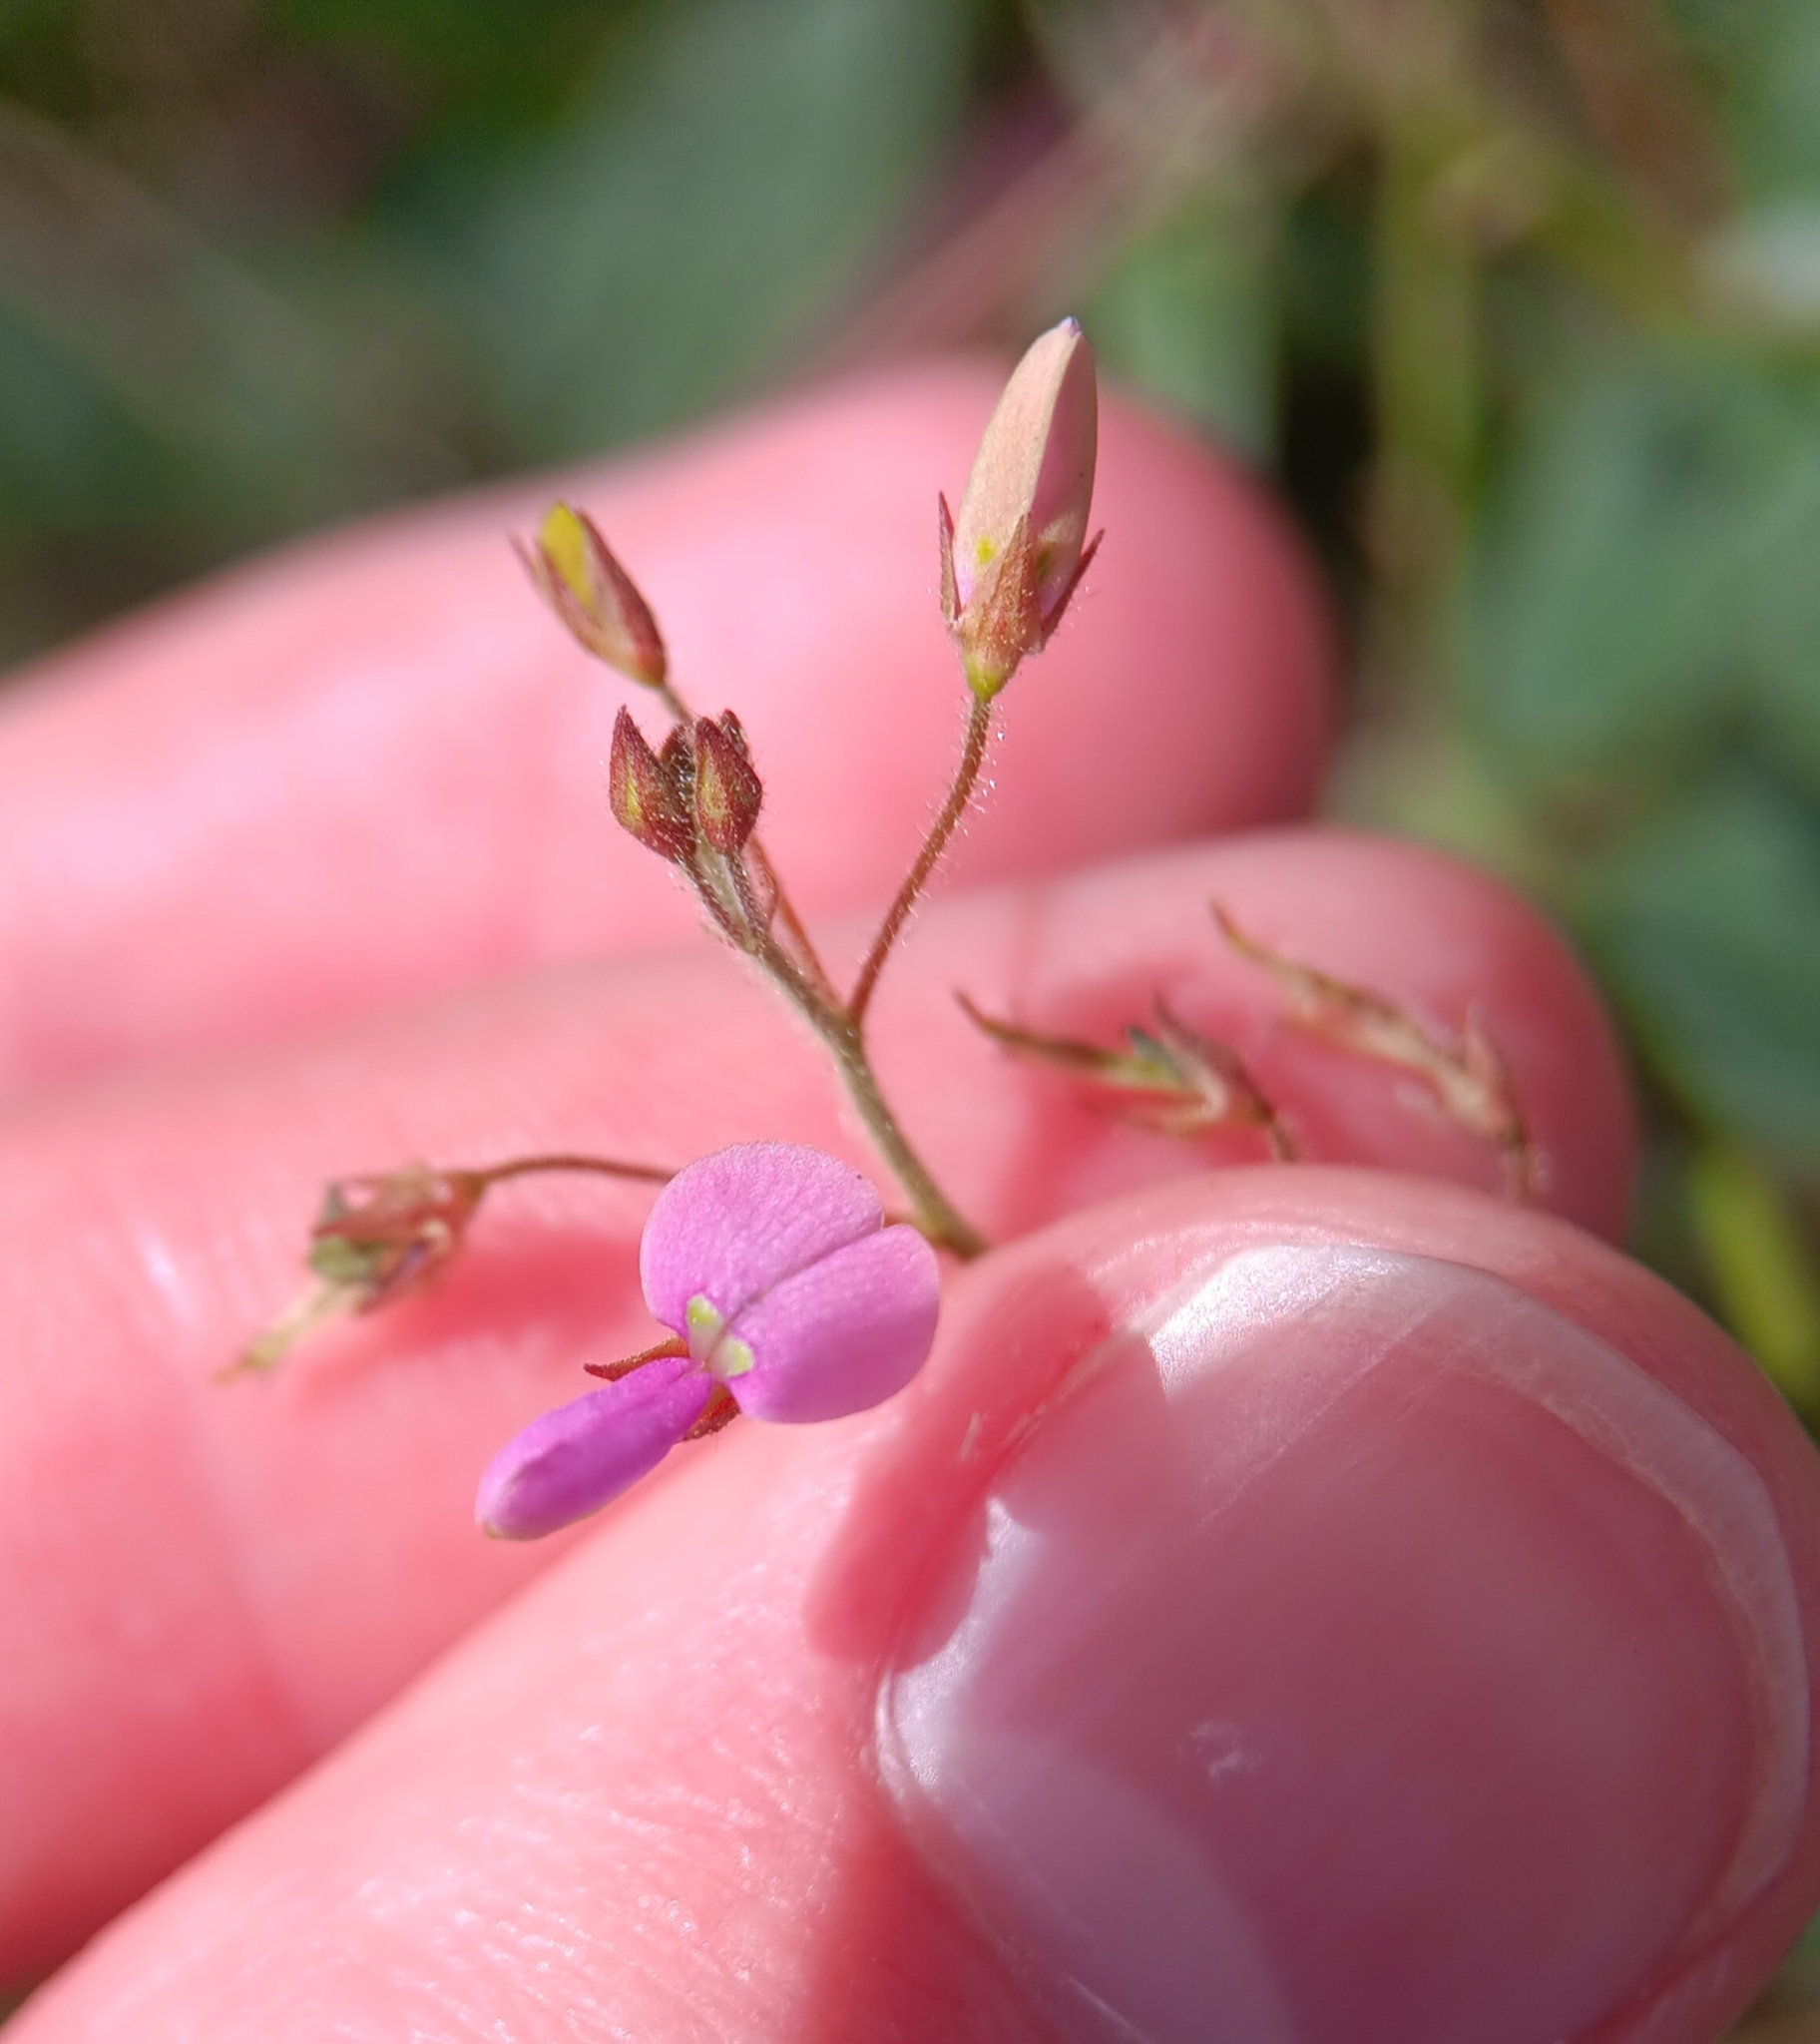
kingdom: Plantae
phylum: Tracheophyta
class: Magnoliopsida
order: Fabales
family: Fabaceae
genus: Desmodium
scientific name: Desmodium tortuosum
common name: Dixie ticktrefoil
